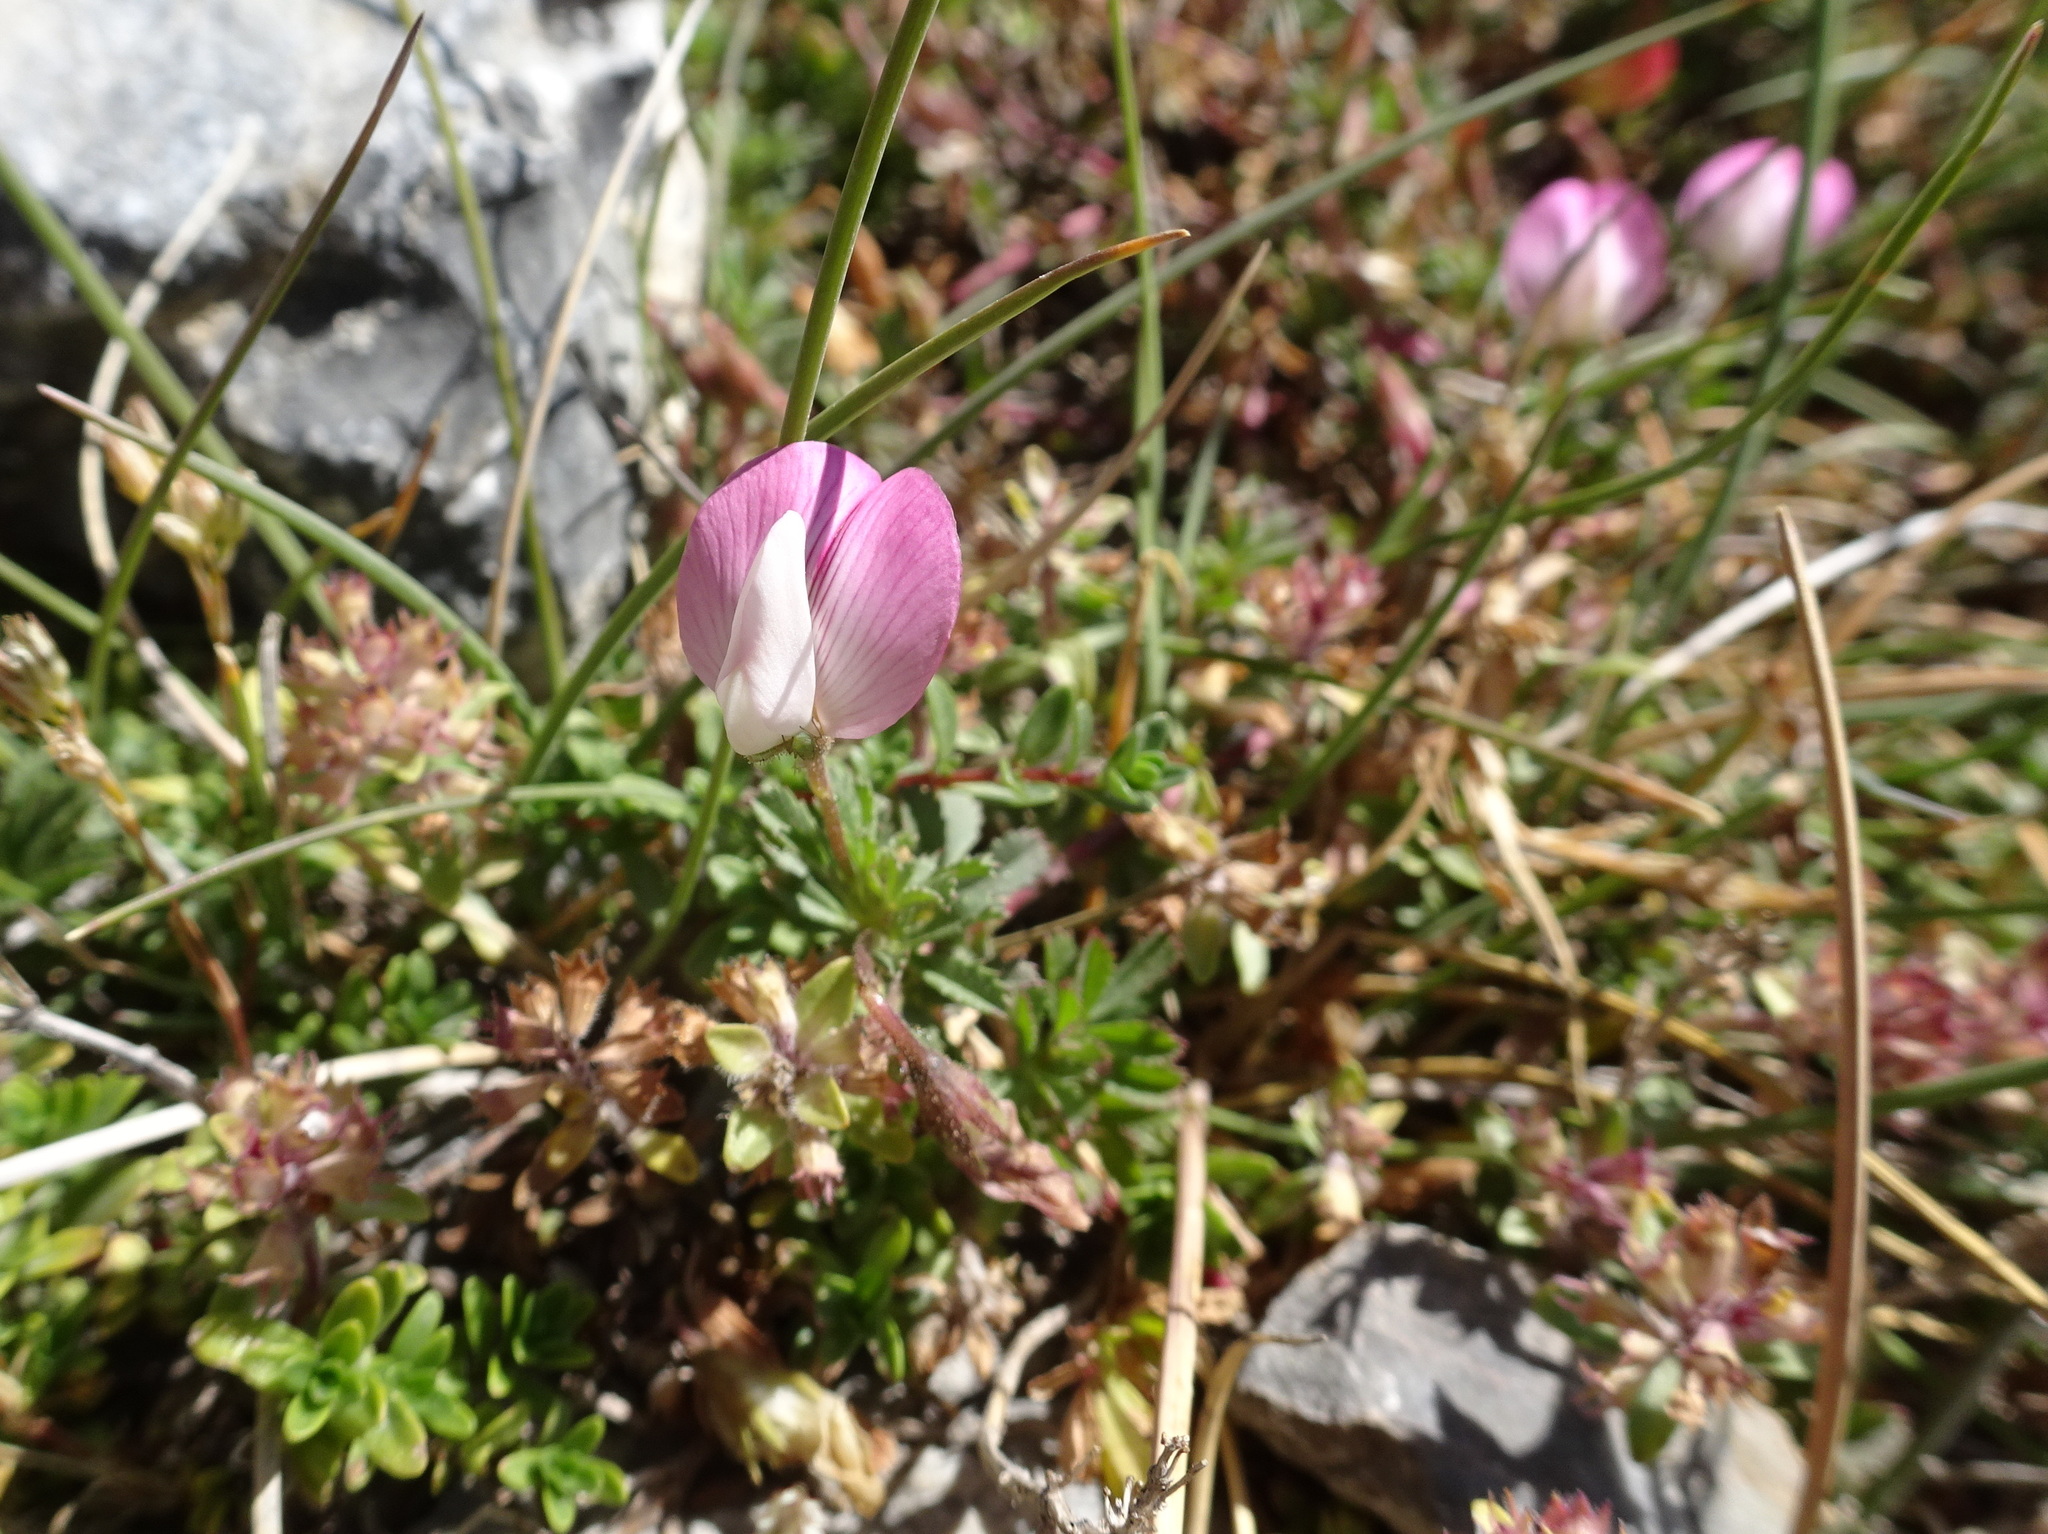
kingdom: Plantae
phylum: Tracheophyta
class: Magnoliopsida
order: Fabales
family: Fabaceae
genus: Ononis
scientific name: Ononis spinosa
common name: Spiny restharrow
